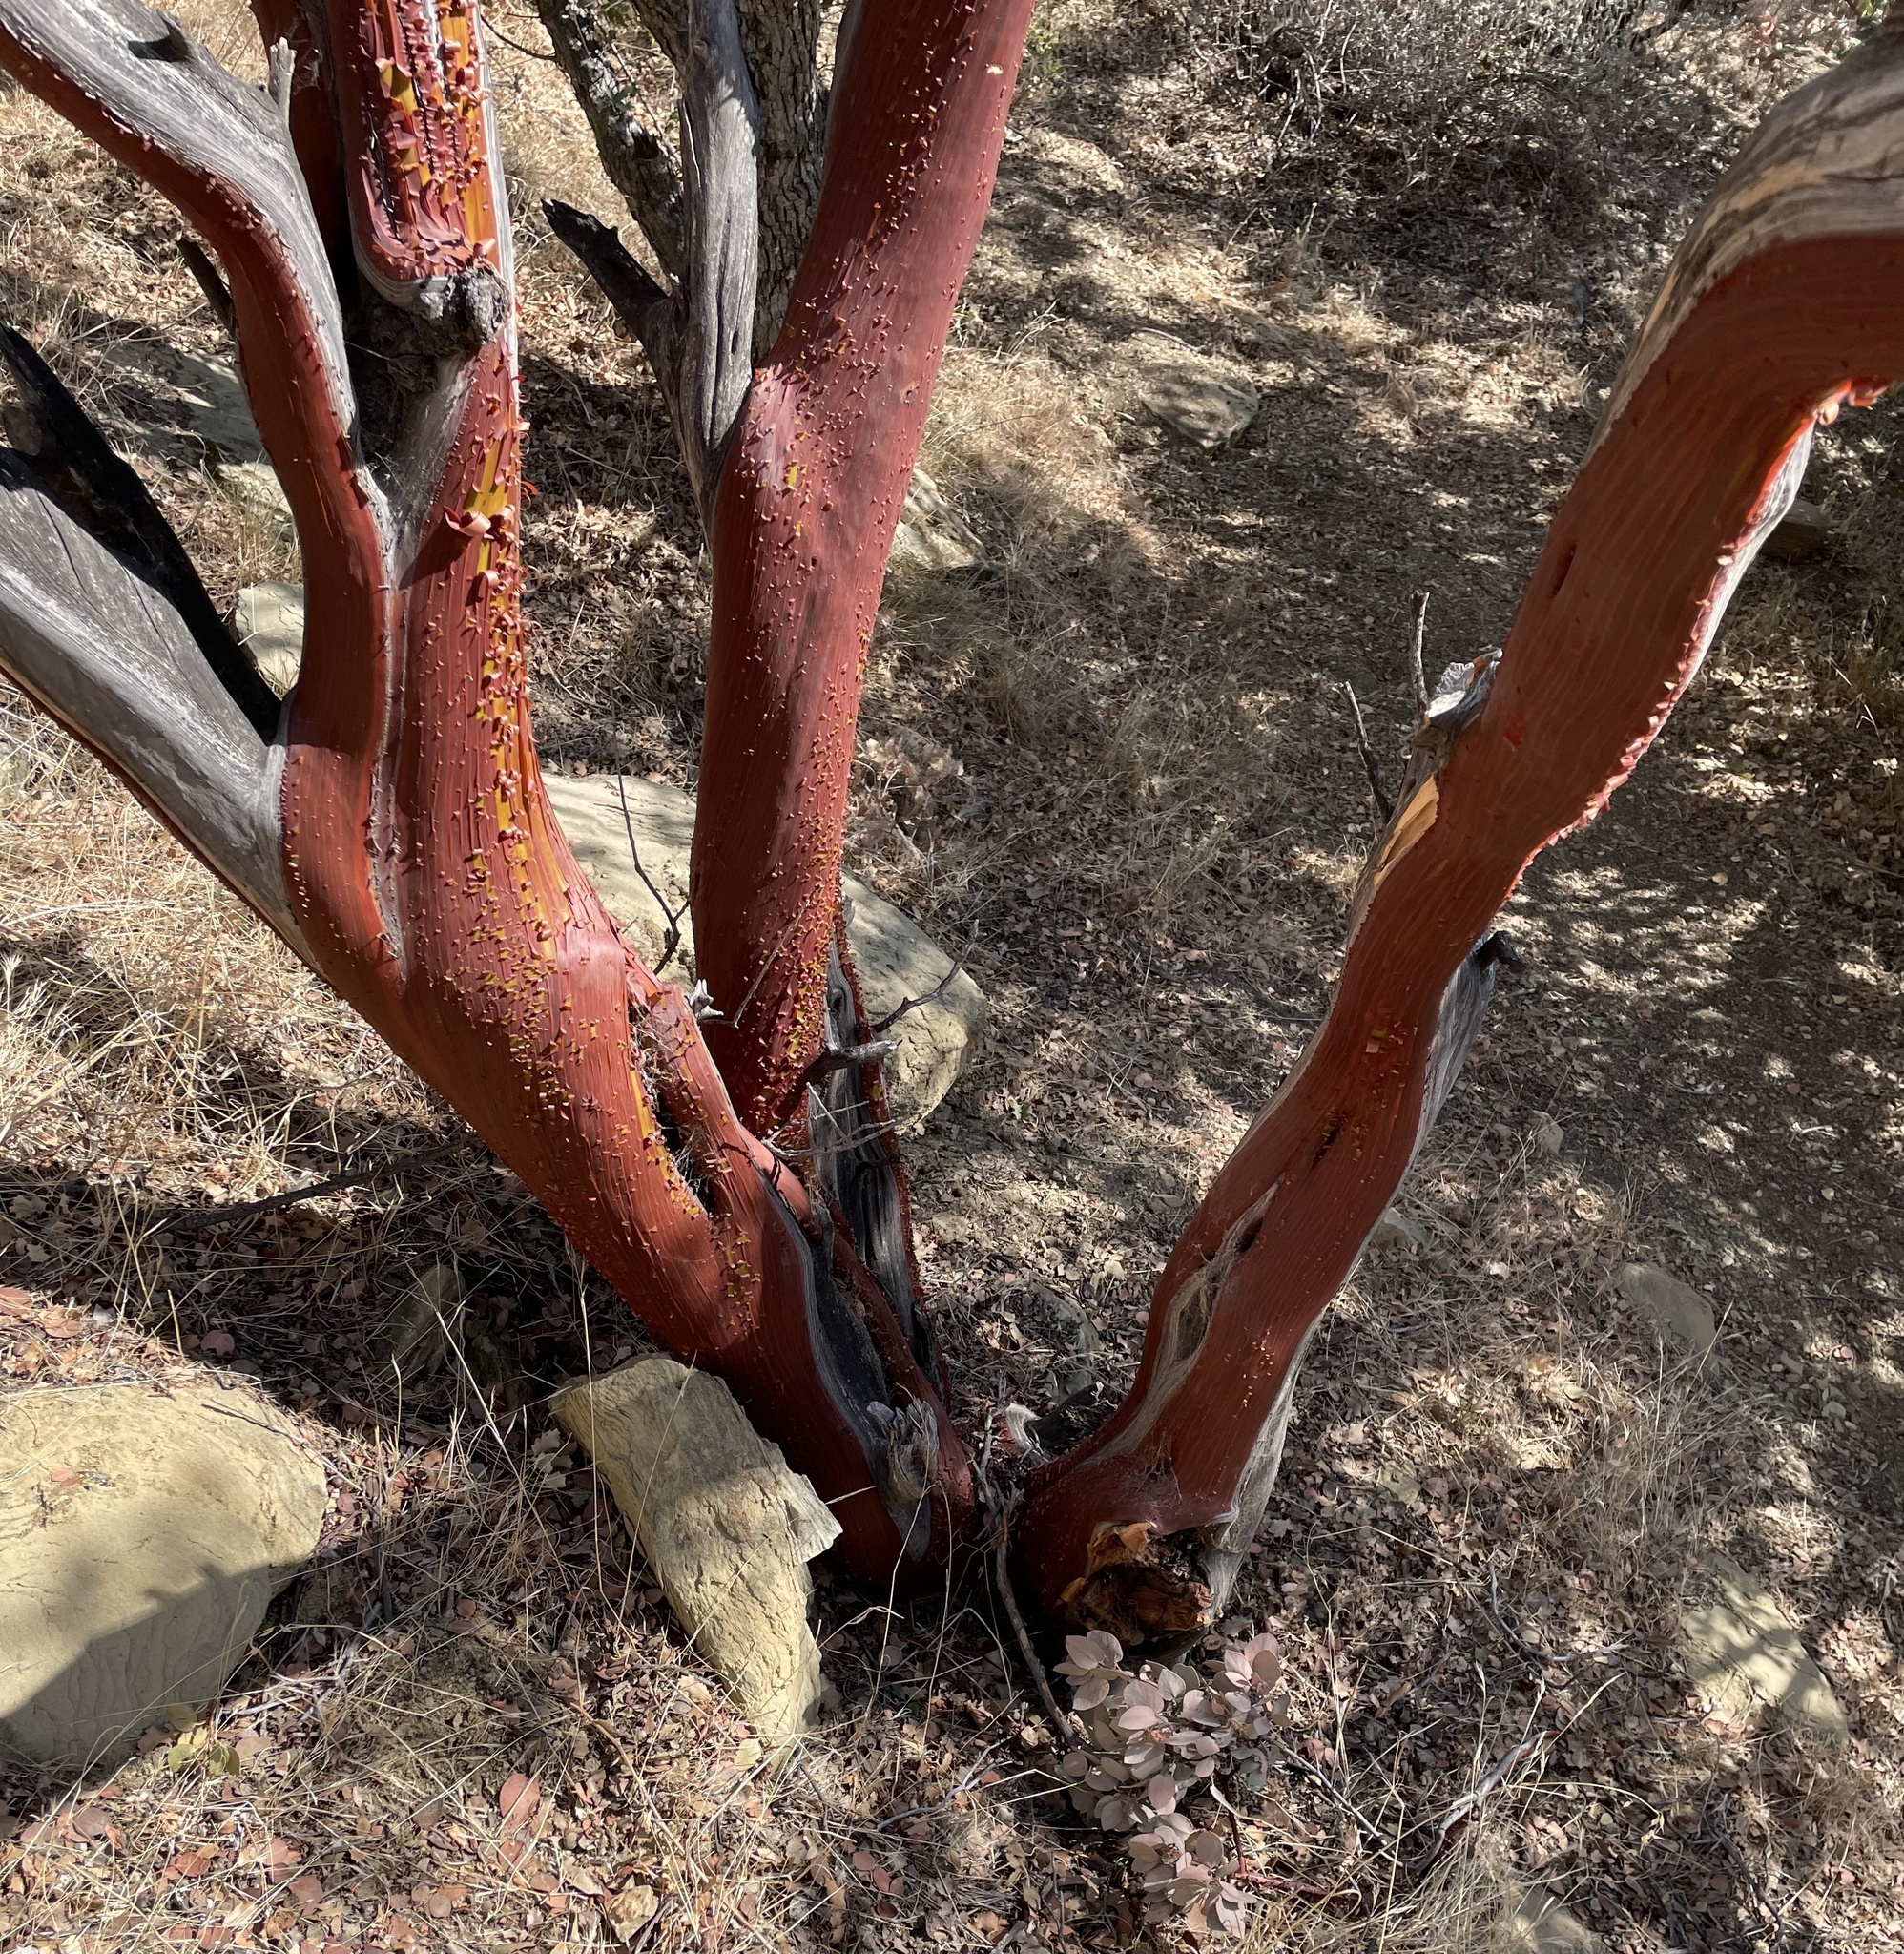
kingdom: Plantae
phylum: Tracheophyta
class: Magnoliopsida
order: Ericales
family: Ericaceae
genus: Arctostaphylos
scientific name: Arctostaphylos glauca
